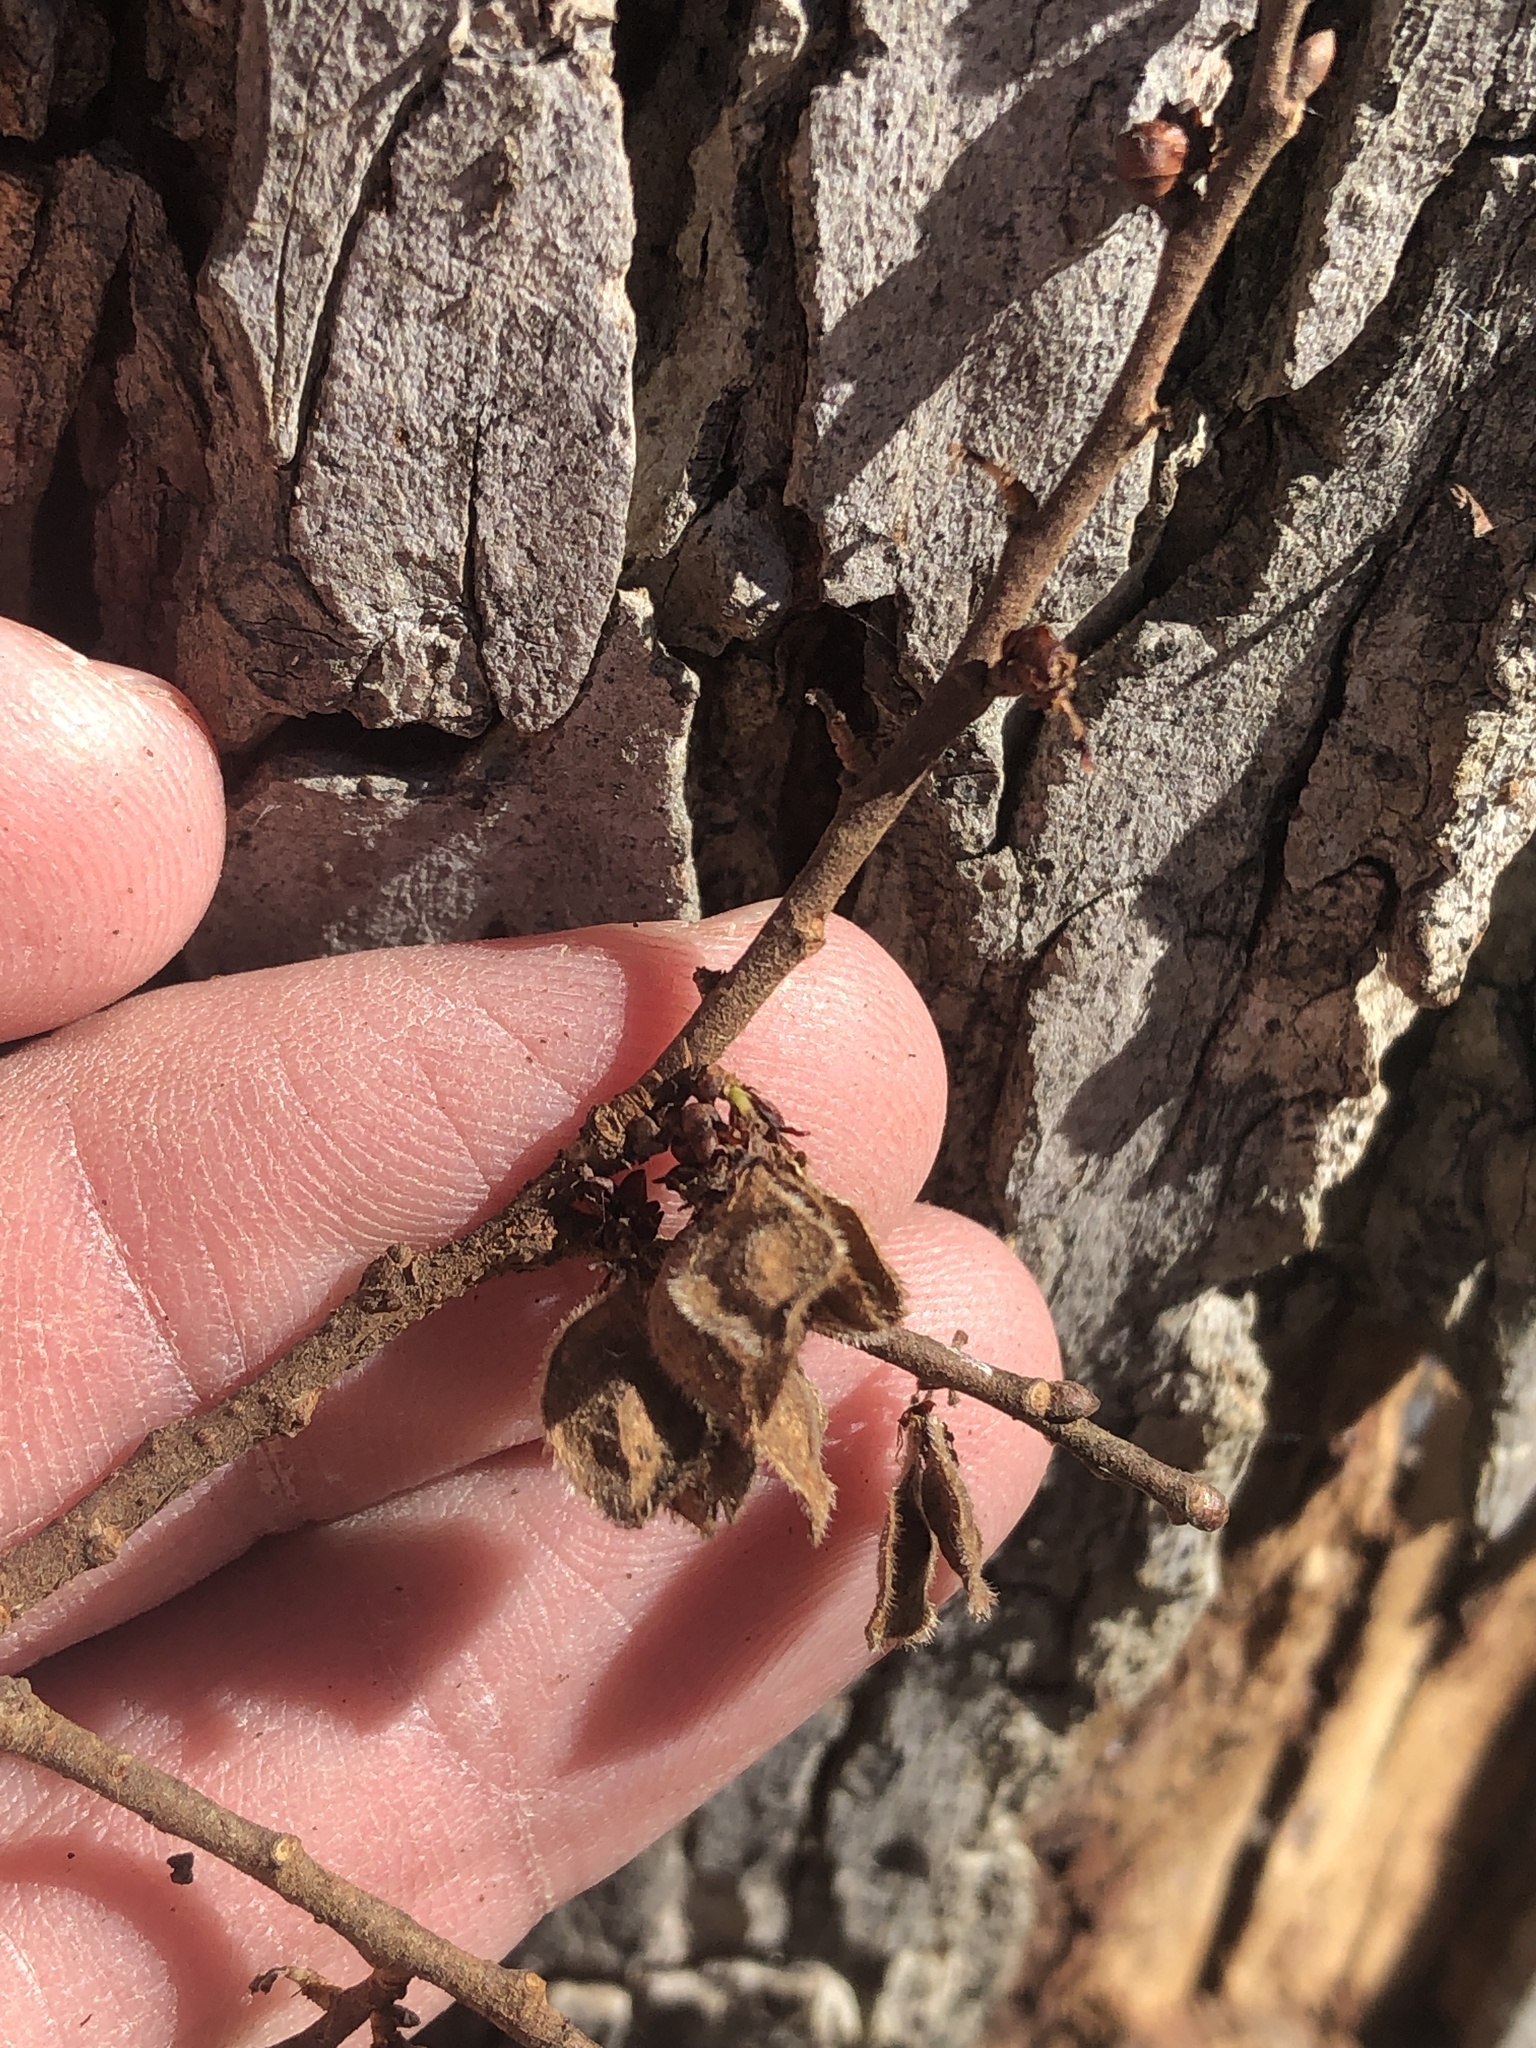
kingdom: Plantae
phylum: Tracheophyta
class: Magnoliopsida
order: Rosales
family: Ulmaceae
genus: Ulmus
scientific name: Ulmus crassifolia
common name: Basket elm
